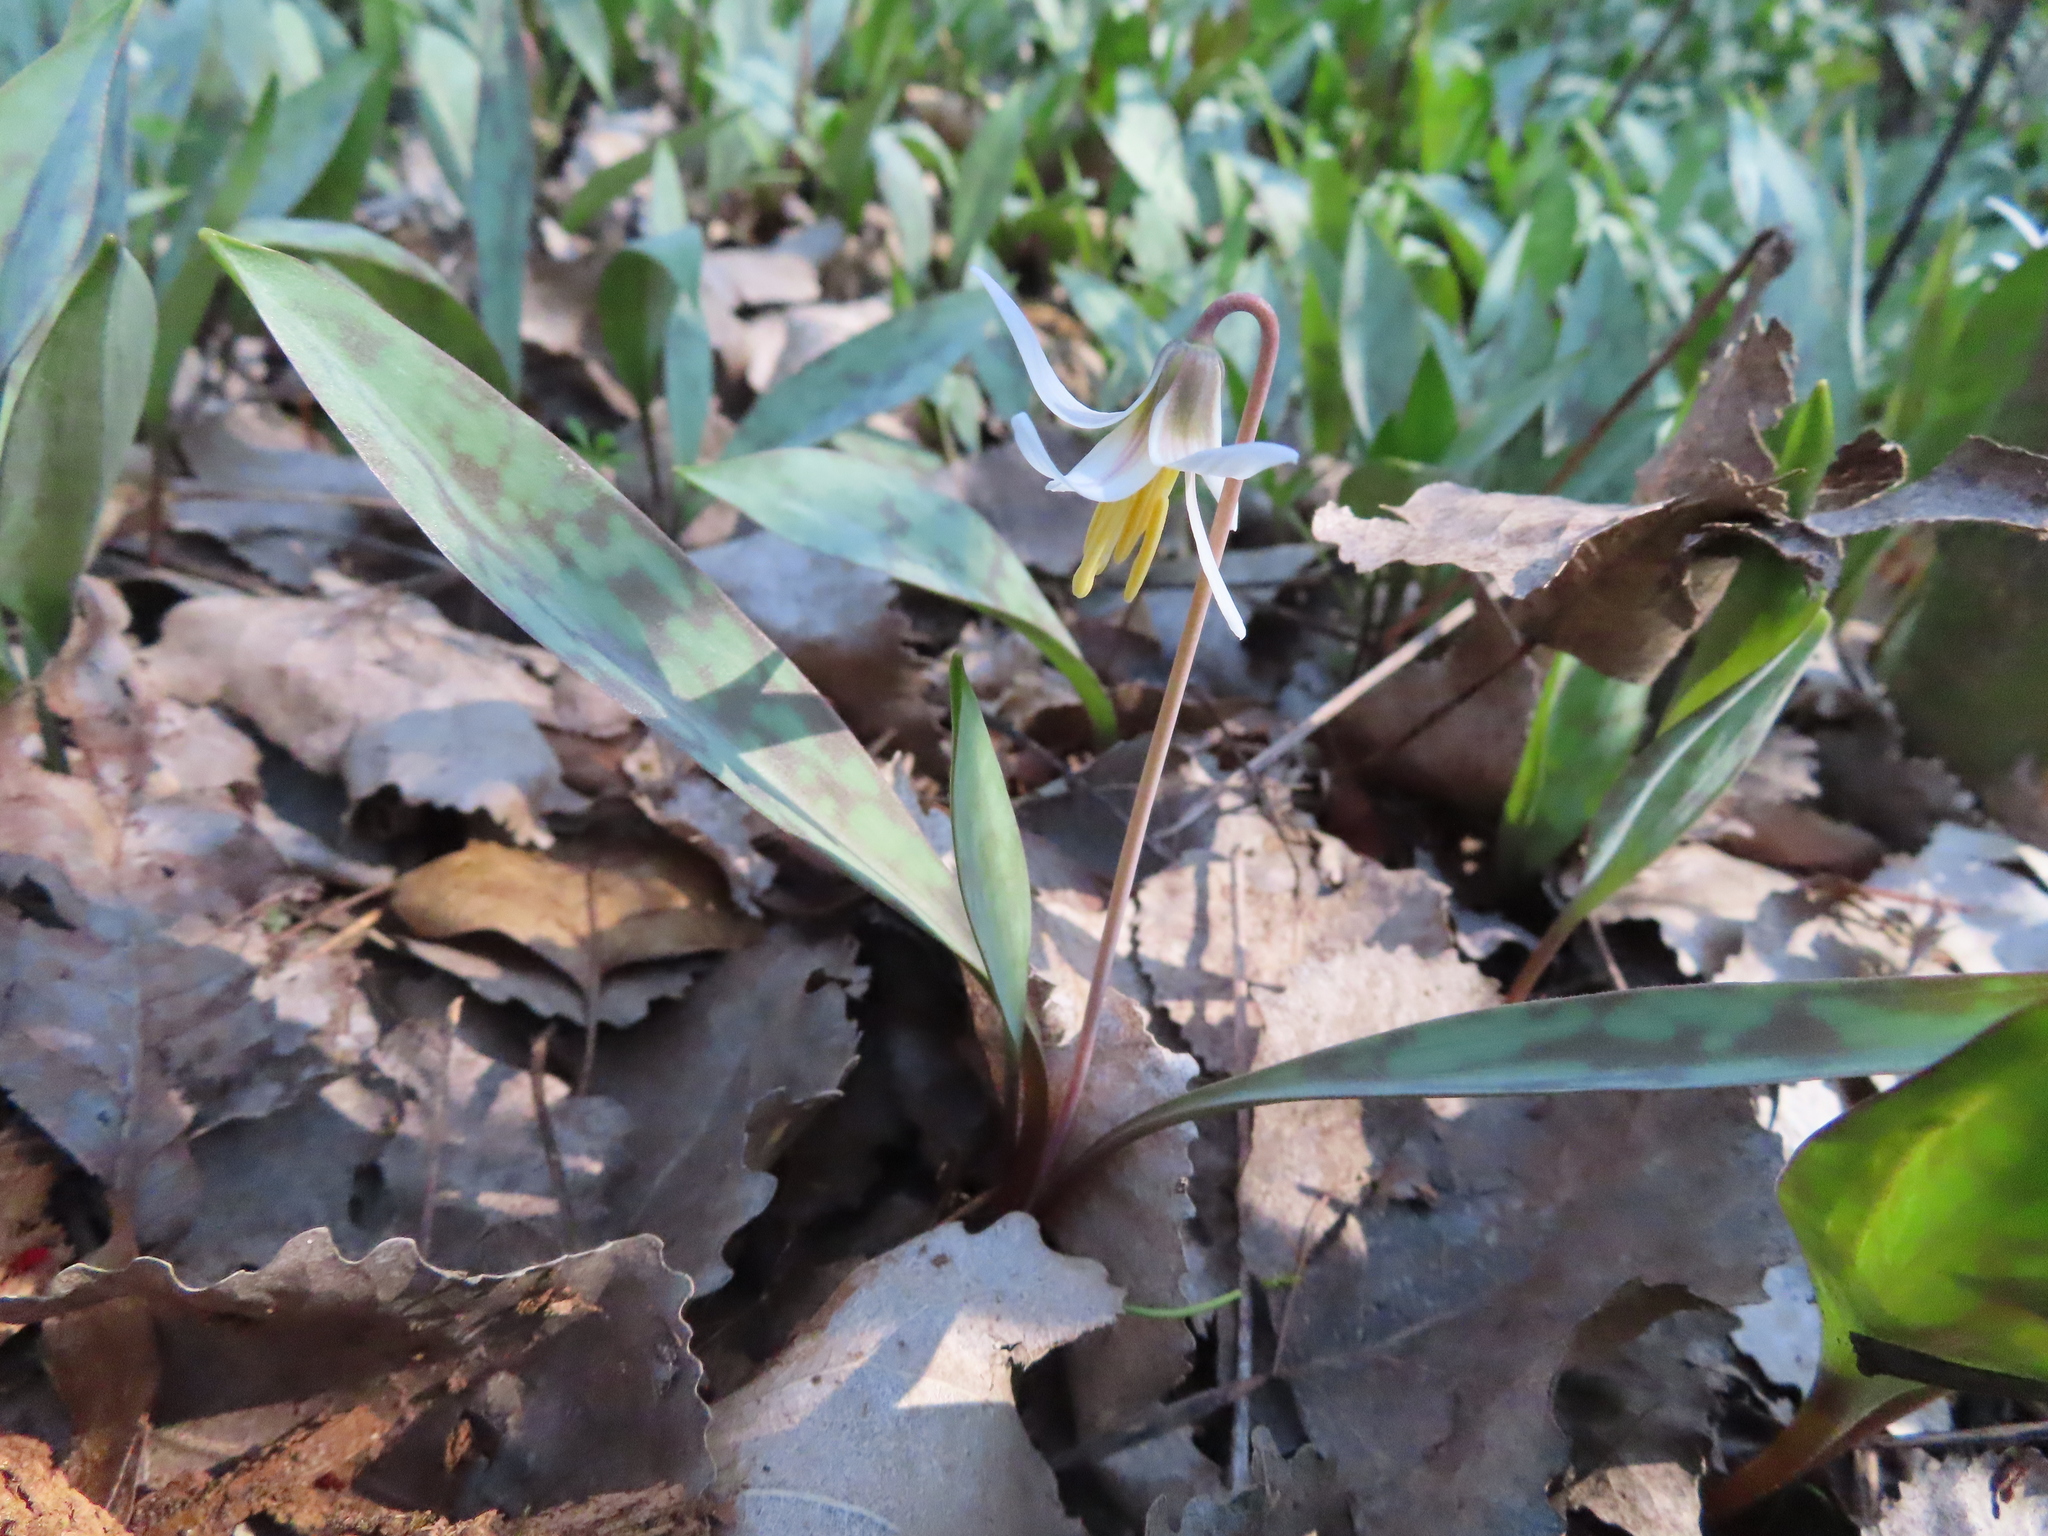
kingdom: Plantae
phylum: Tracheophyta
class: Liliopsida
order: Liliales
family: Liliaceae
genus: Erythronium
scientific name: Erythronium albidum
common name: White trout-lily
